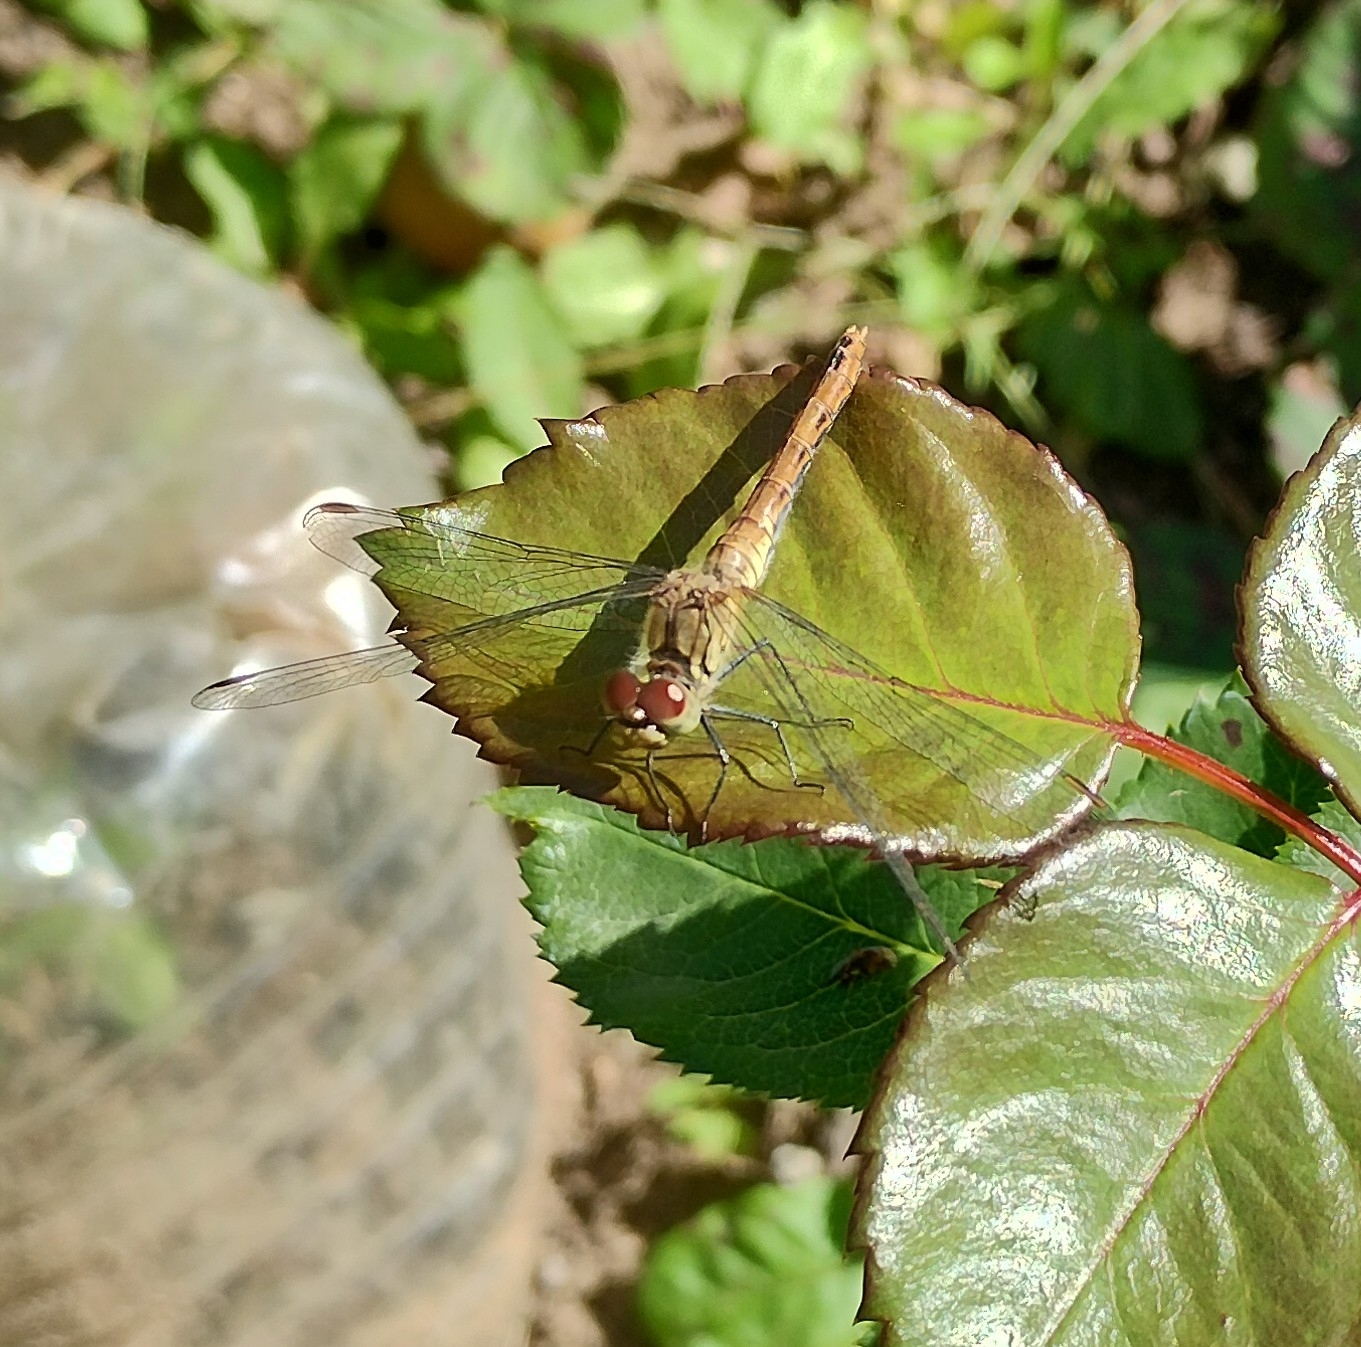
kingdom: Animalia
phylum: Arthropoda
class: Insecta
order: Odonata
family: Libellulidae
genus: Sympetrum
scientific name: Sympetrum sanguineum
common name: Ruddy darter
